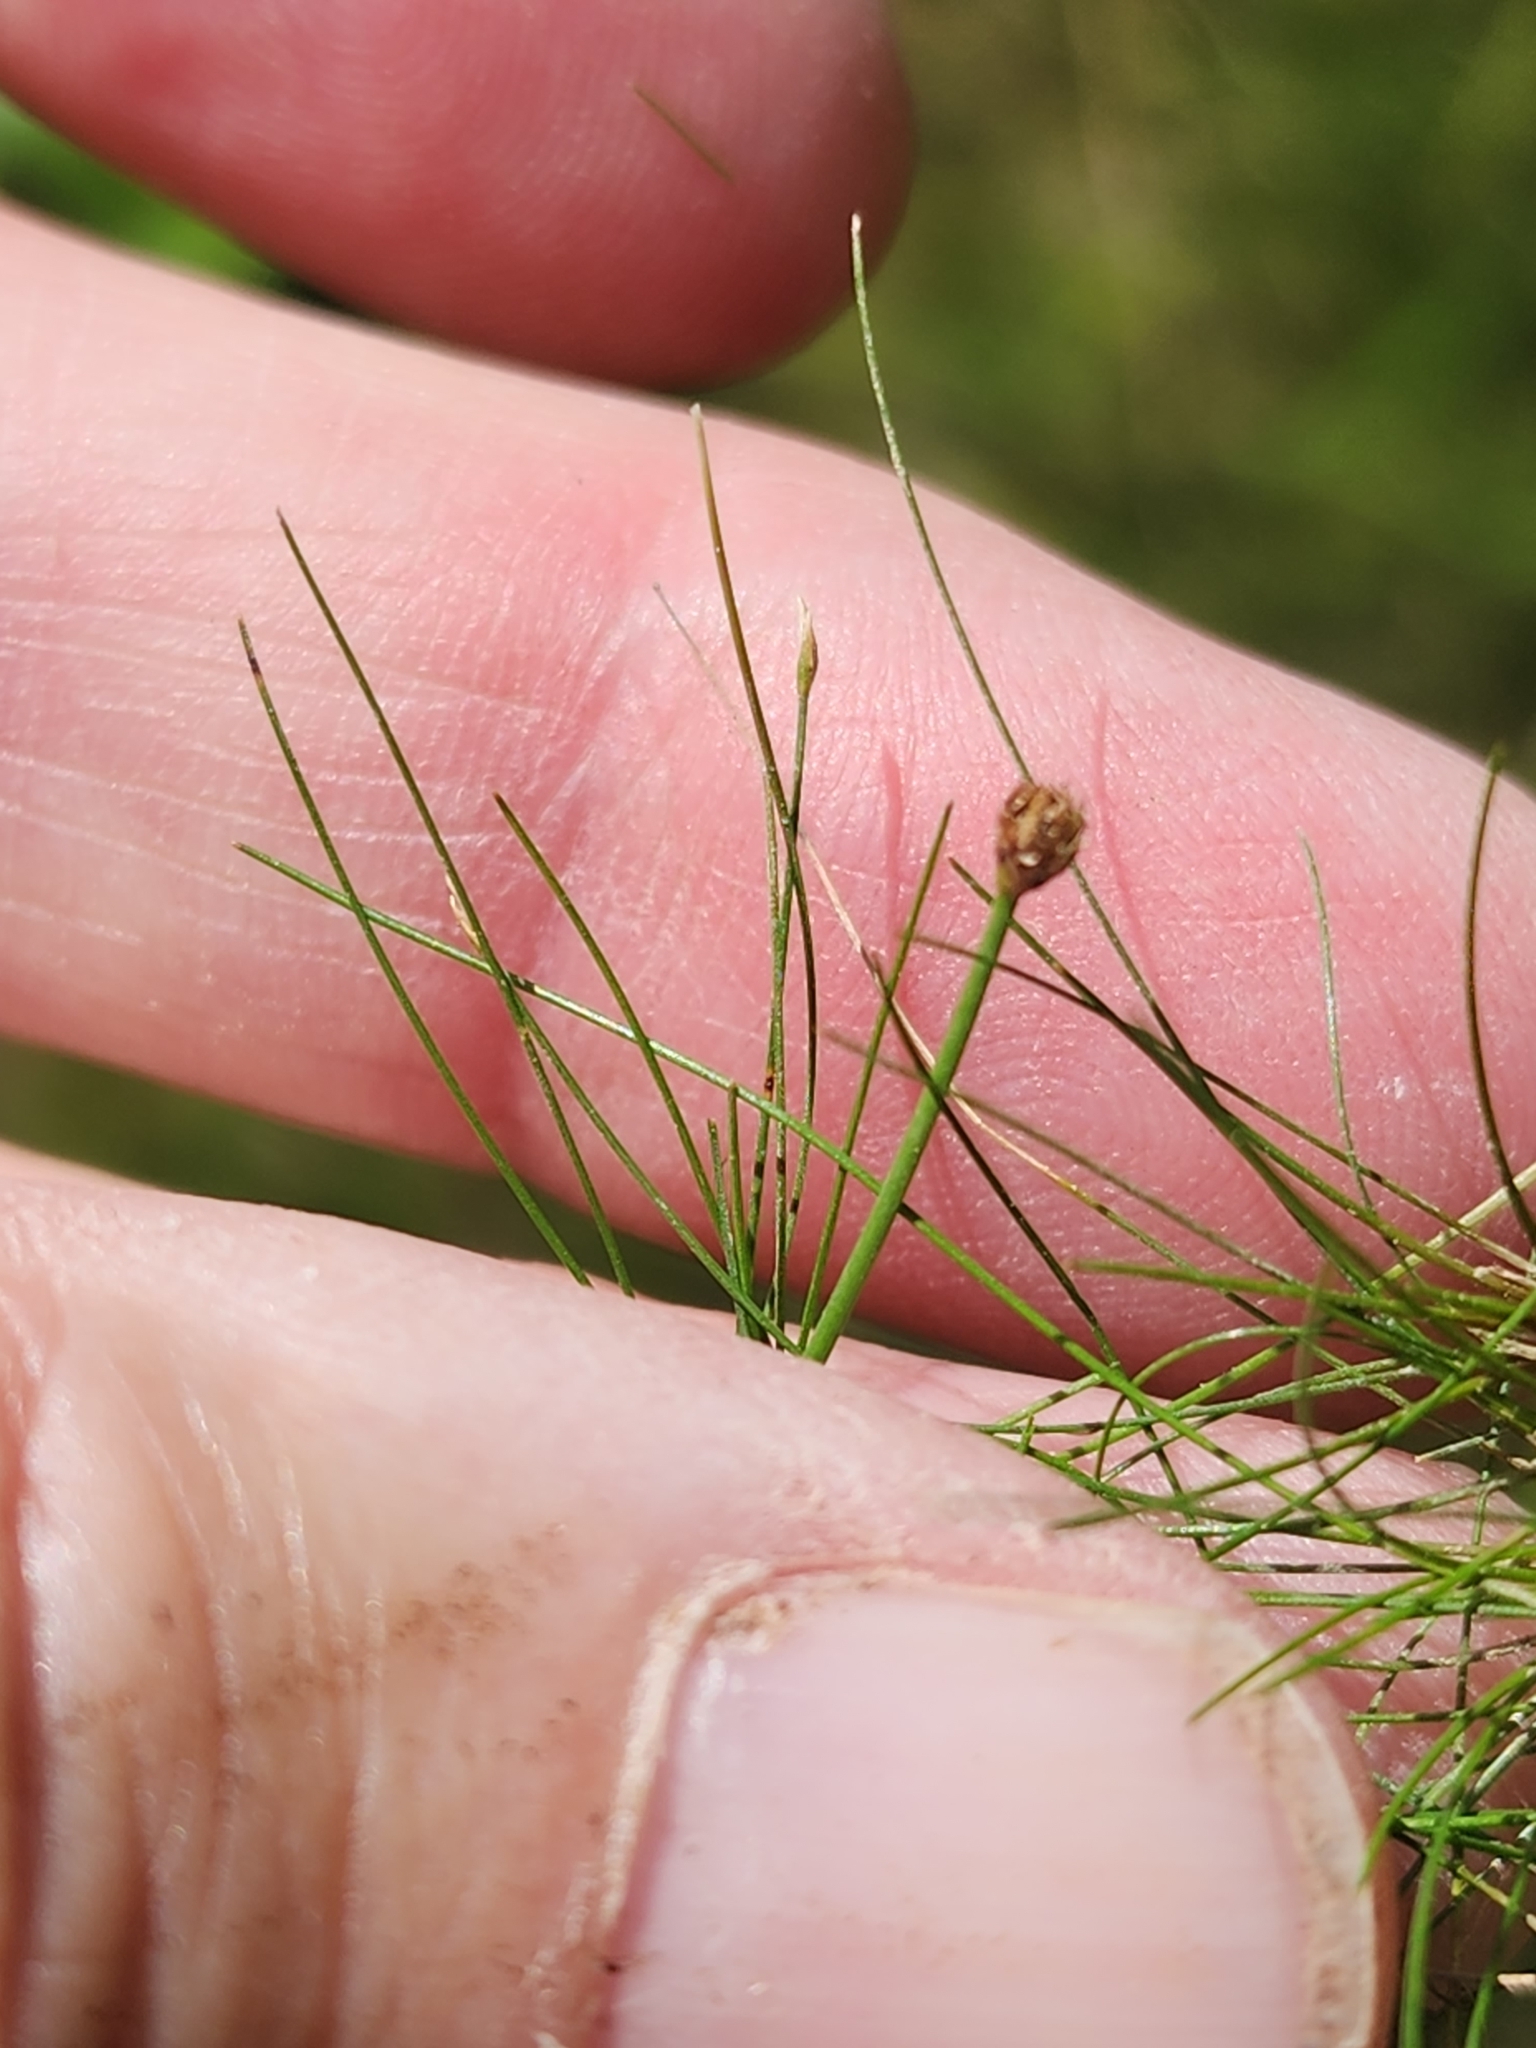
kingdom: Plantae
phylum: Tracheophyta
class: Liliopsida
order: Poales
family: Cyperaceae
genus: Eleocharis
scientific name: Eleocharis acicularis
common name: Needle spike-rush
